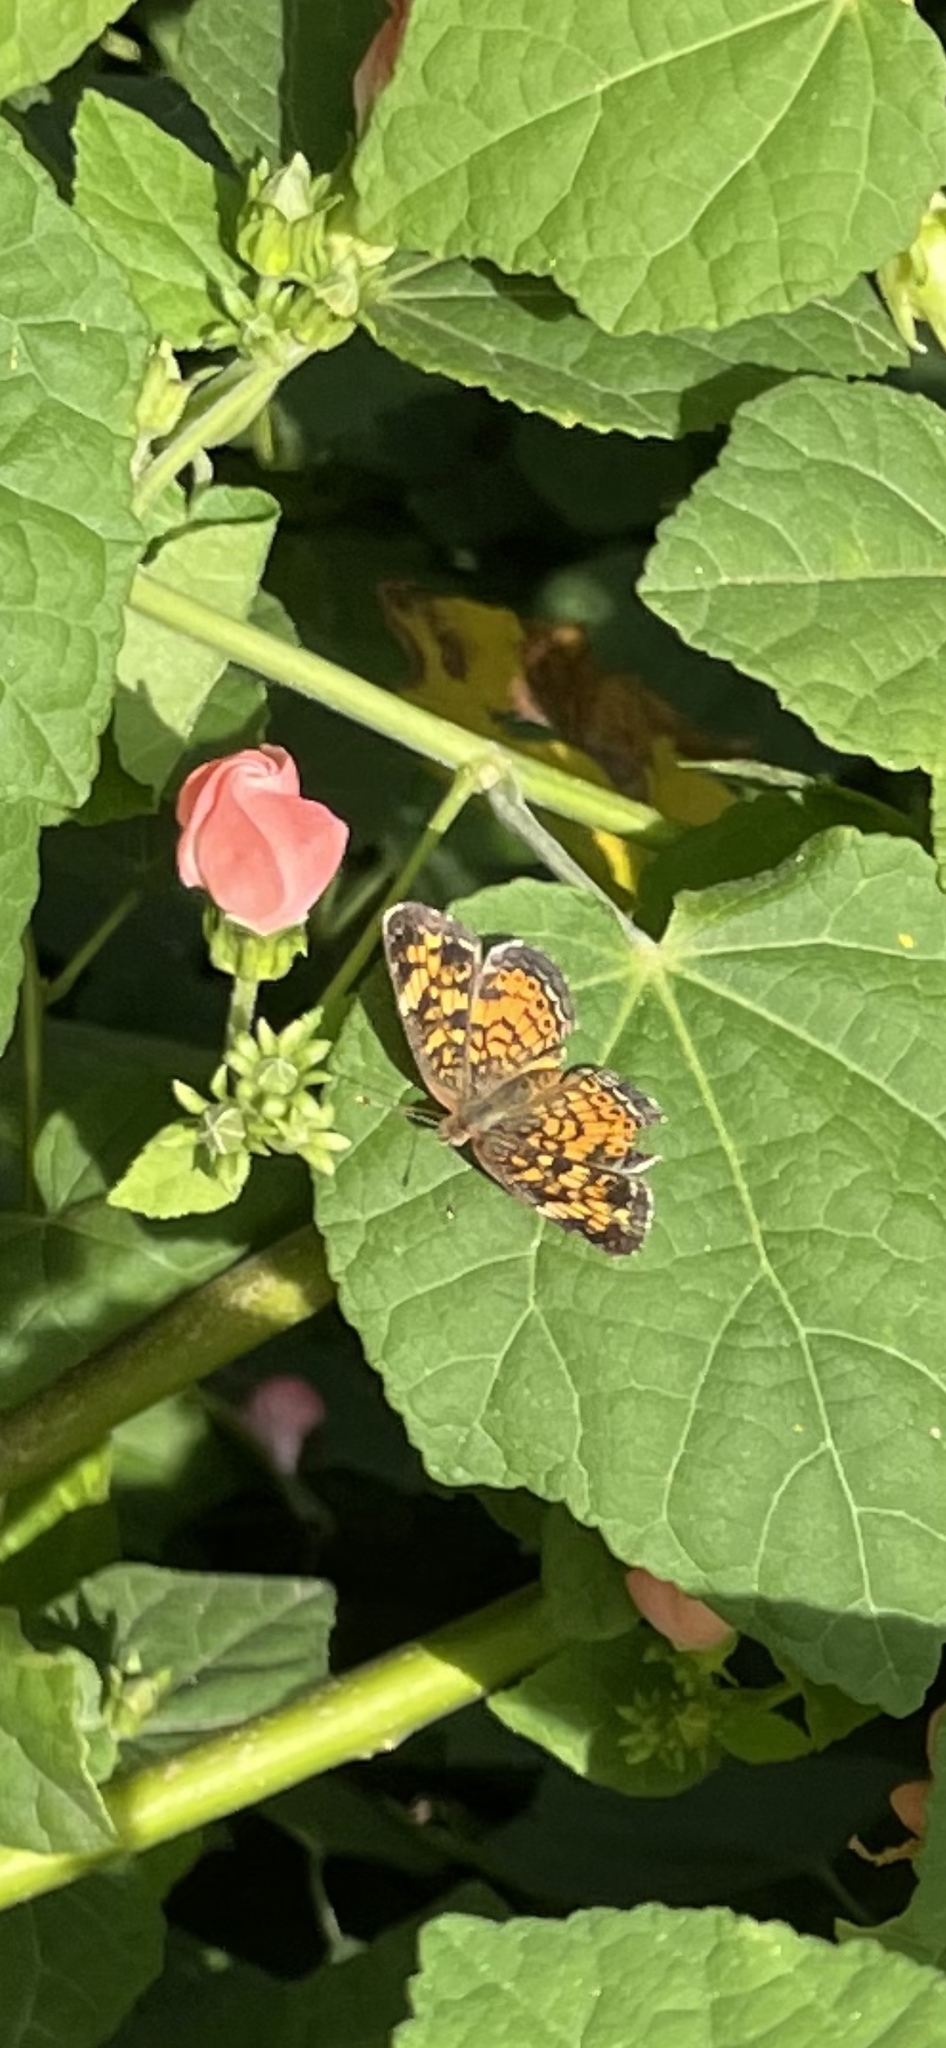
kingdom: Animalia
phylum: Arthropoda
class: Insecta
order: Lepidoptera
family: Nymphalidae
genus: Phyciodes
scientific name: Phyciodes tharos
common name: Pearl crescent
